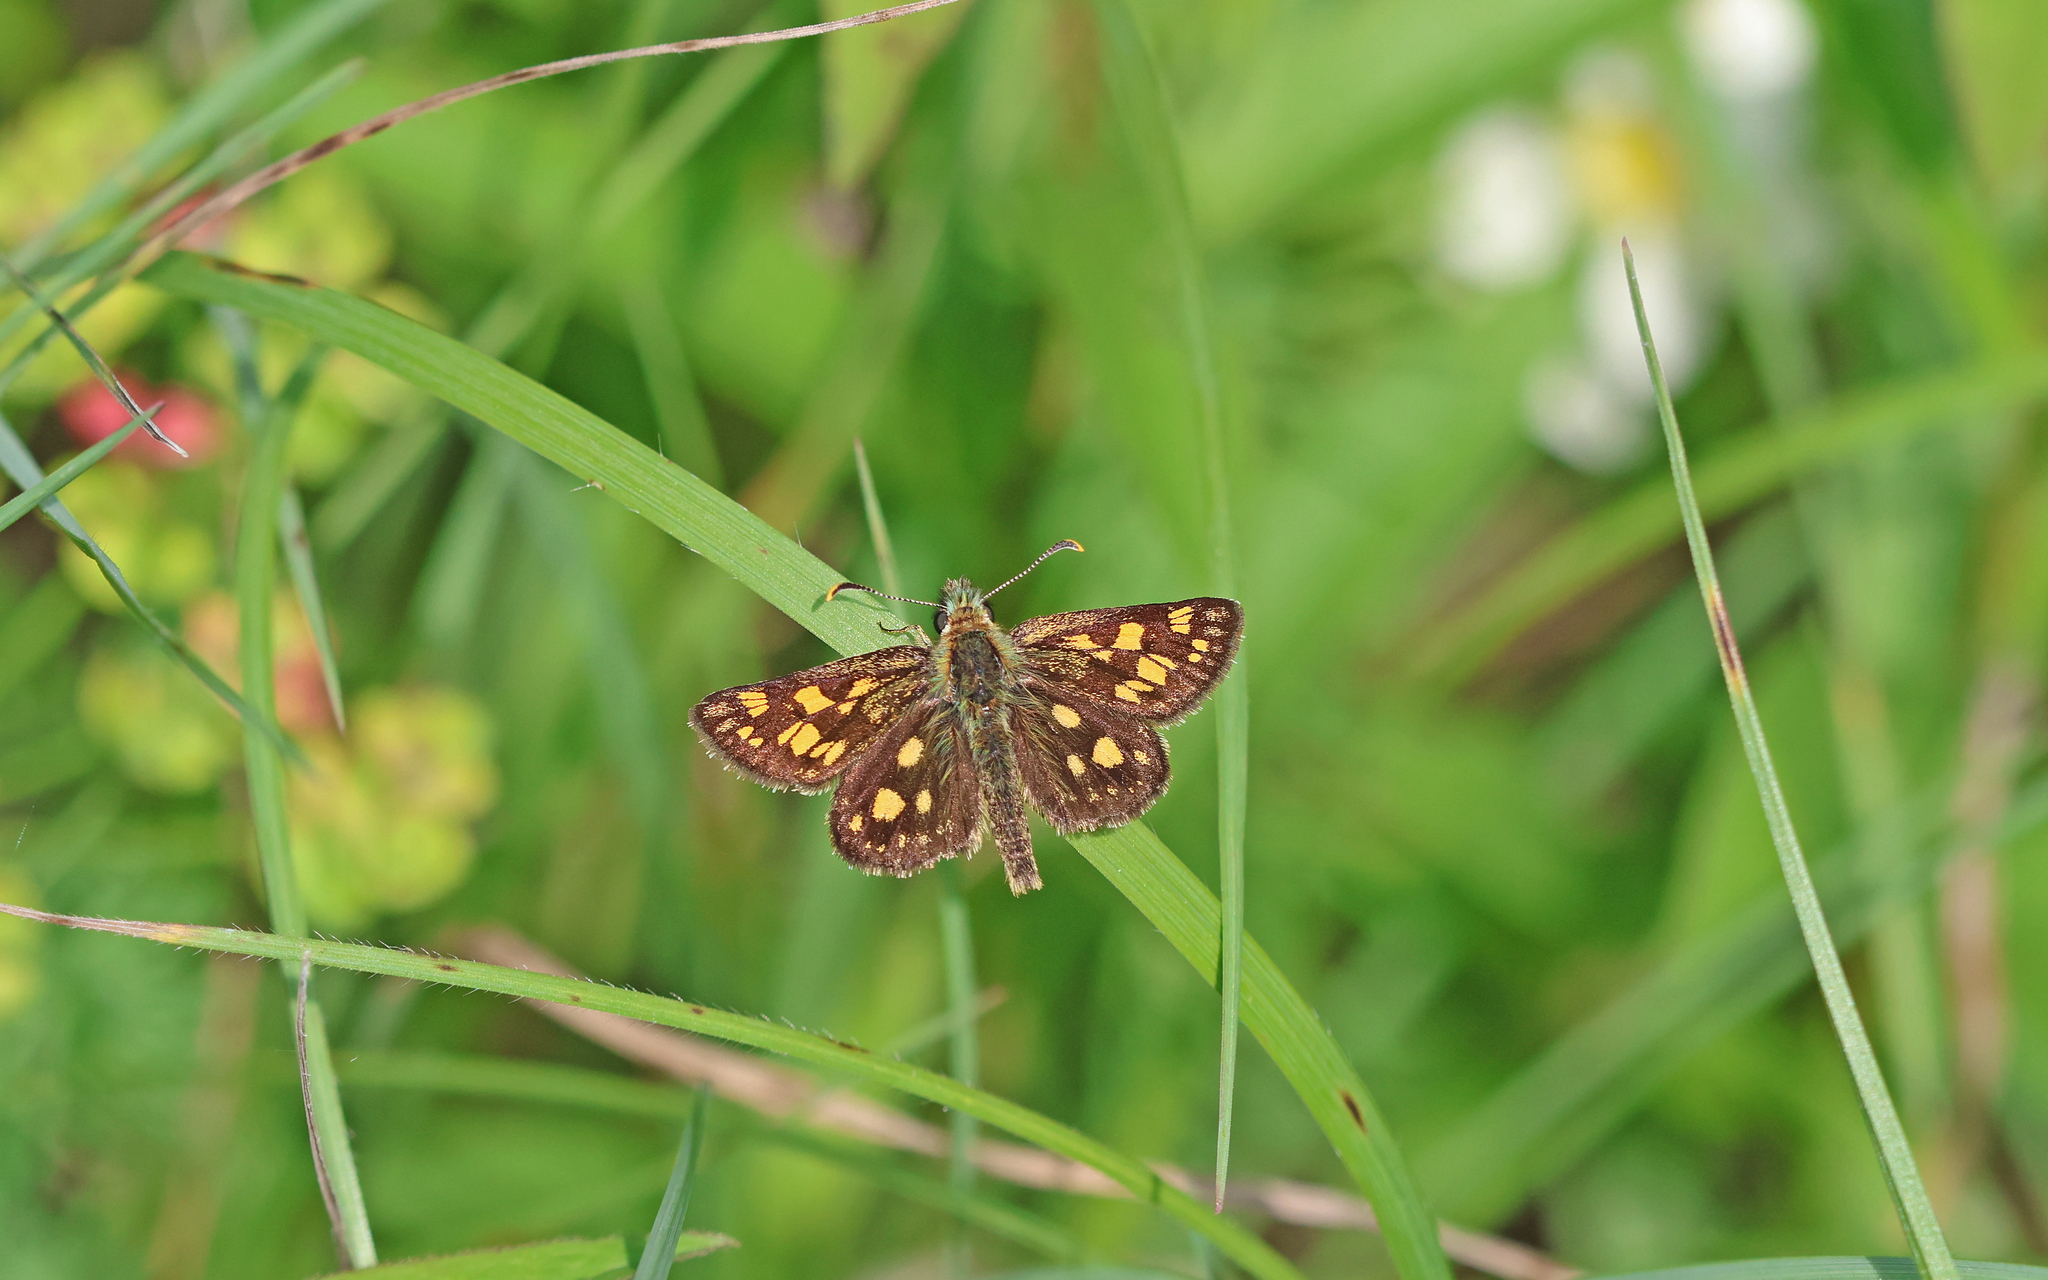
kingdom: Animalia
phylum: Arthropoda
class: Insecta
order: Lepidoptera
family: Hesperiidae
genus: Carterocephalus
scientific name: Carterocephalus palaemon
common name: Chequered skipper
